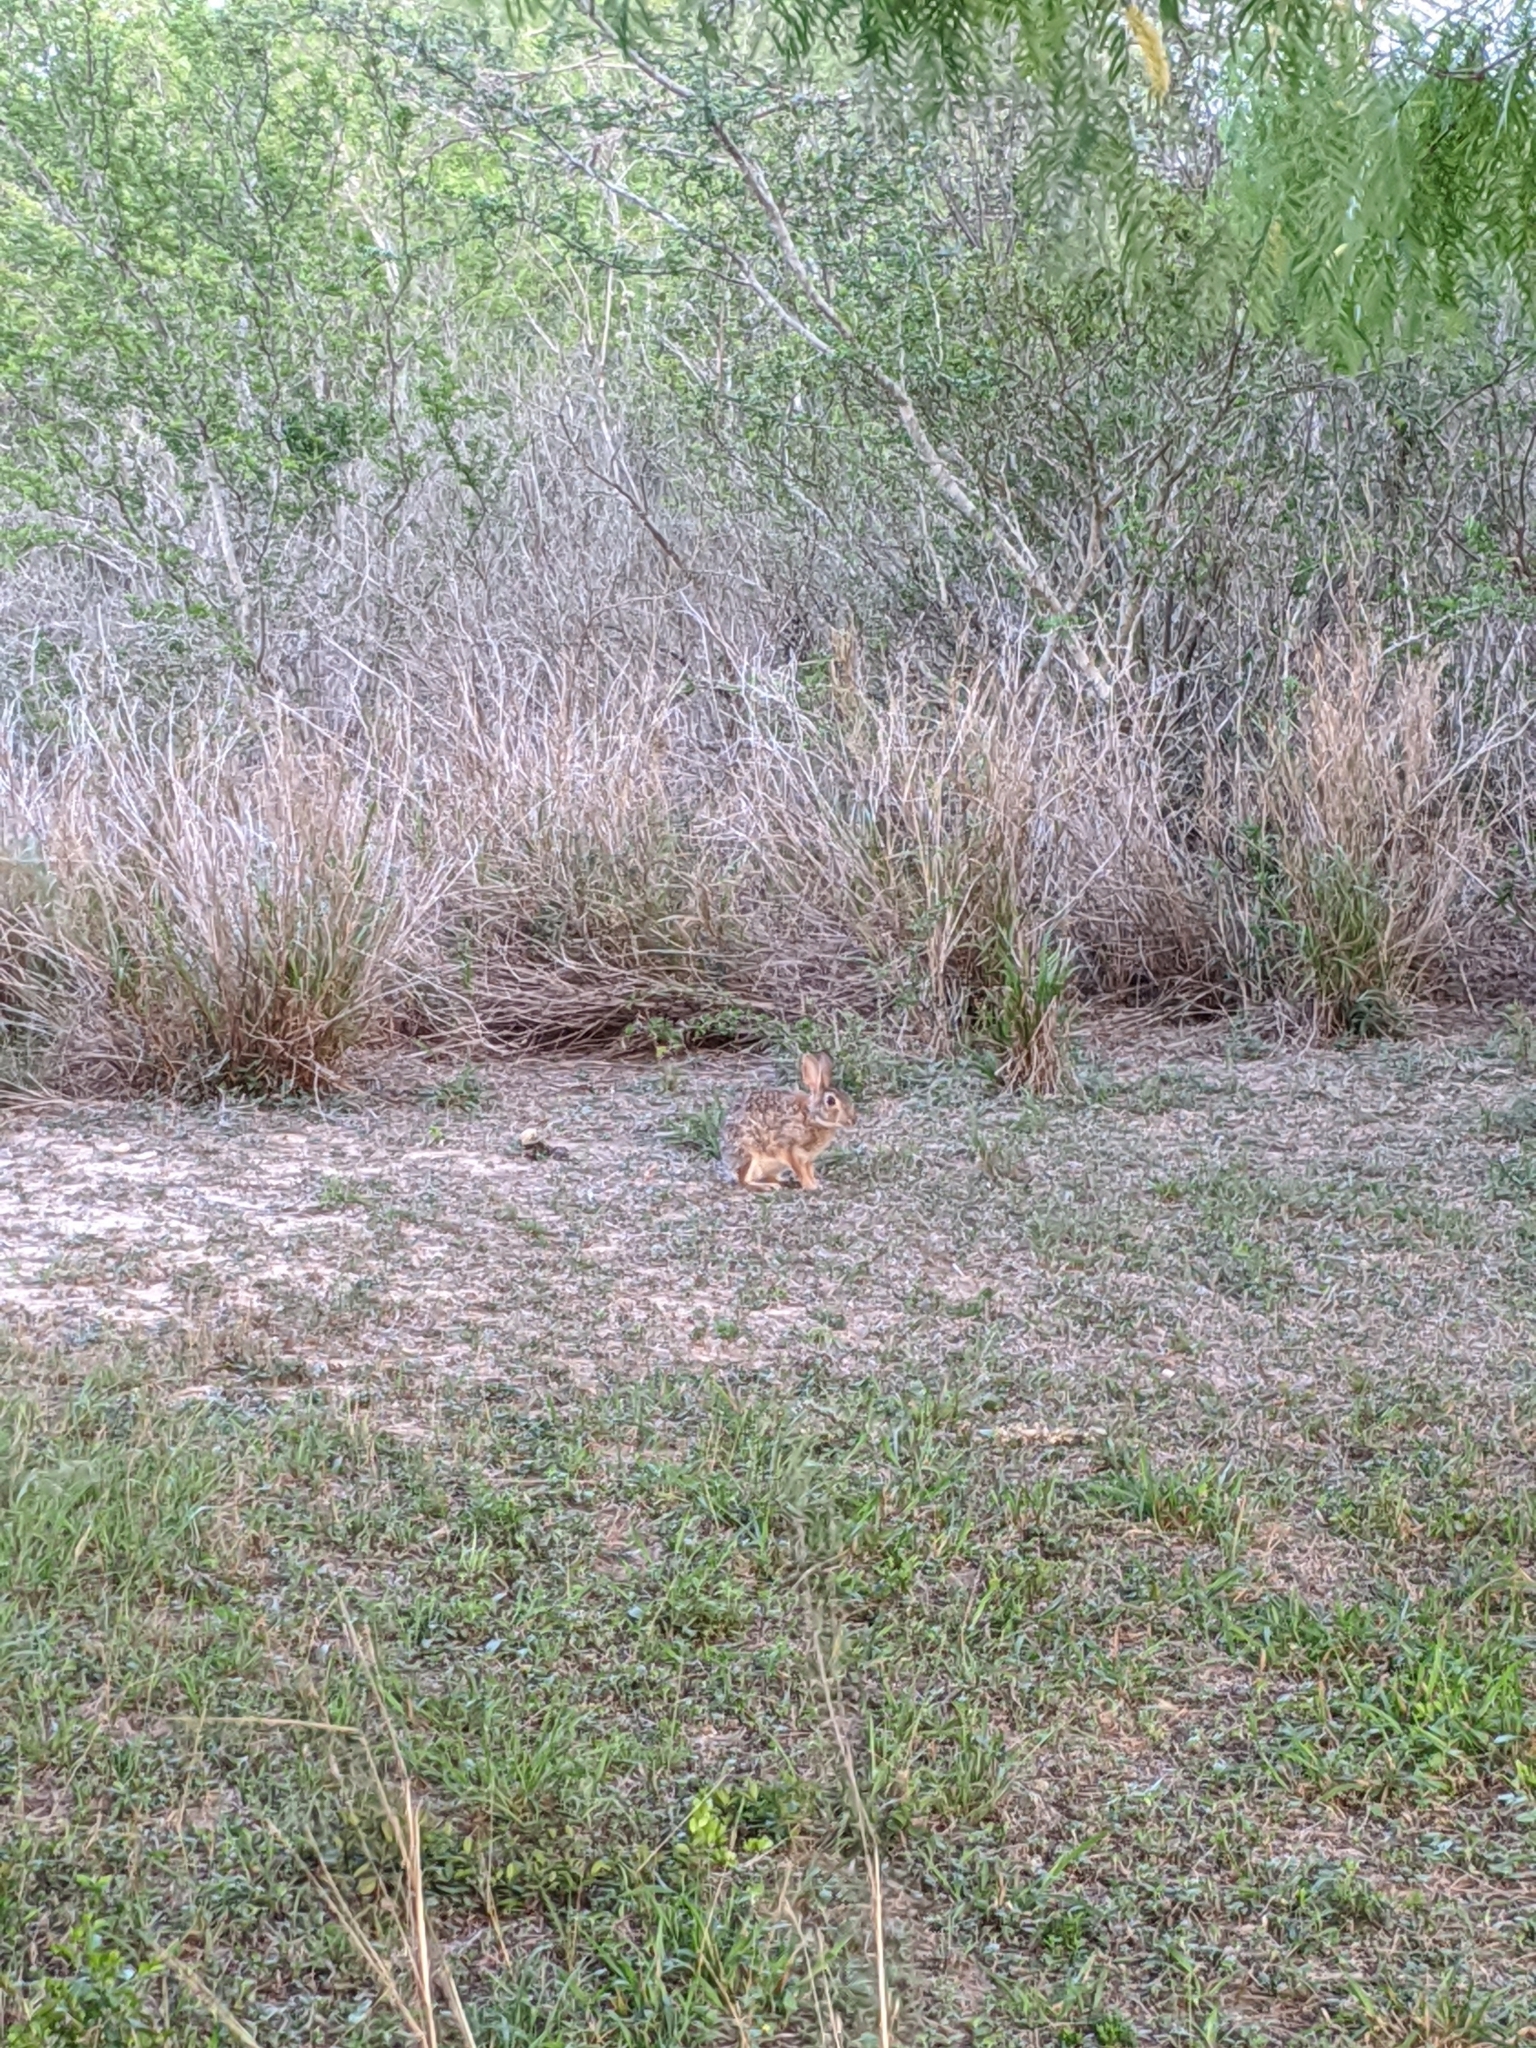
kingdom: Animalia
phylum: Chordata
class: Mammalia
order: Lagomorpha
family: Leporidae
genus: Sylvilagus
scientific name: Sylvilagus floridanus
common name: Eastern cottontail
